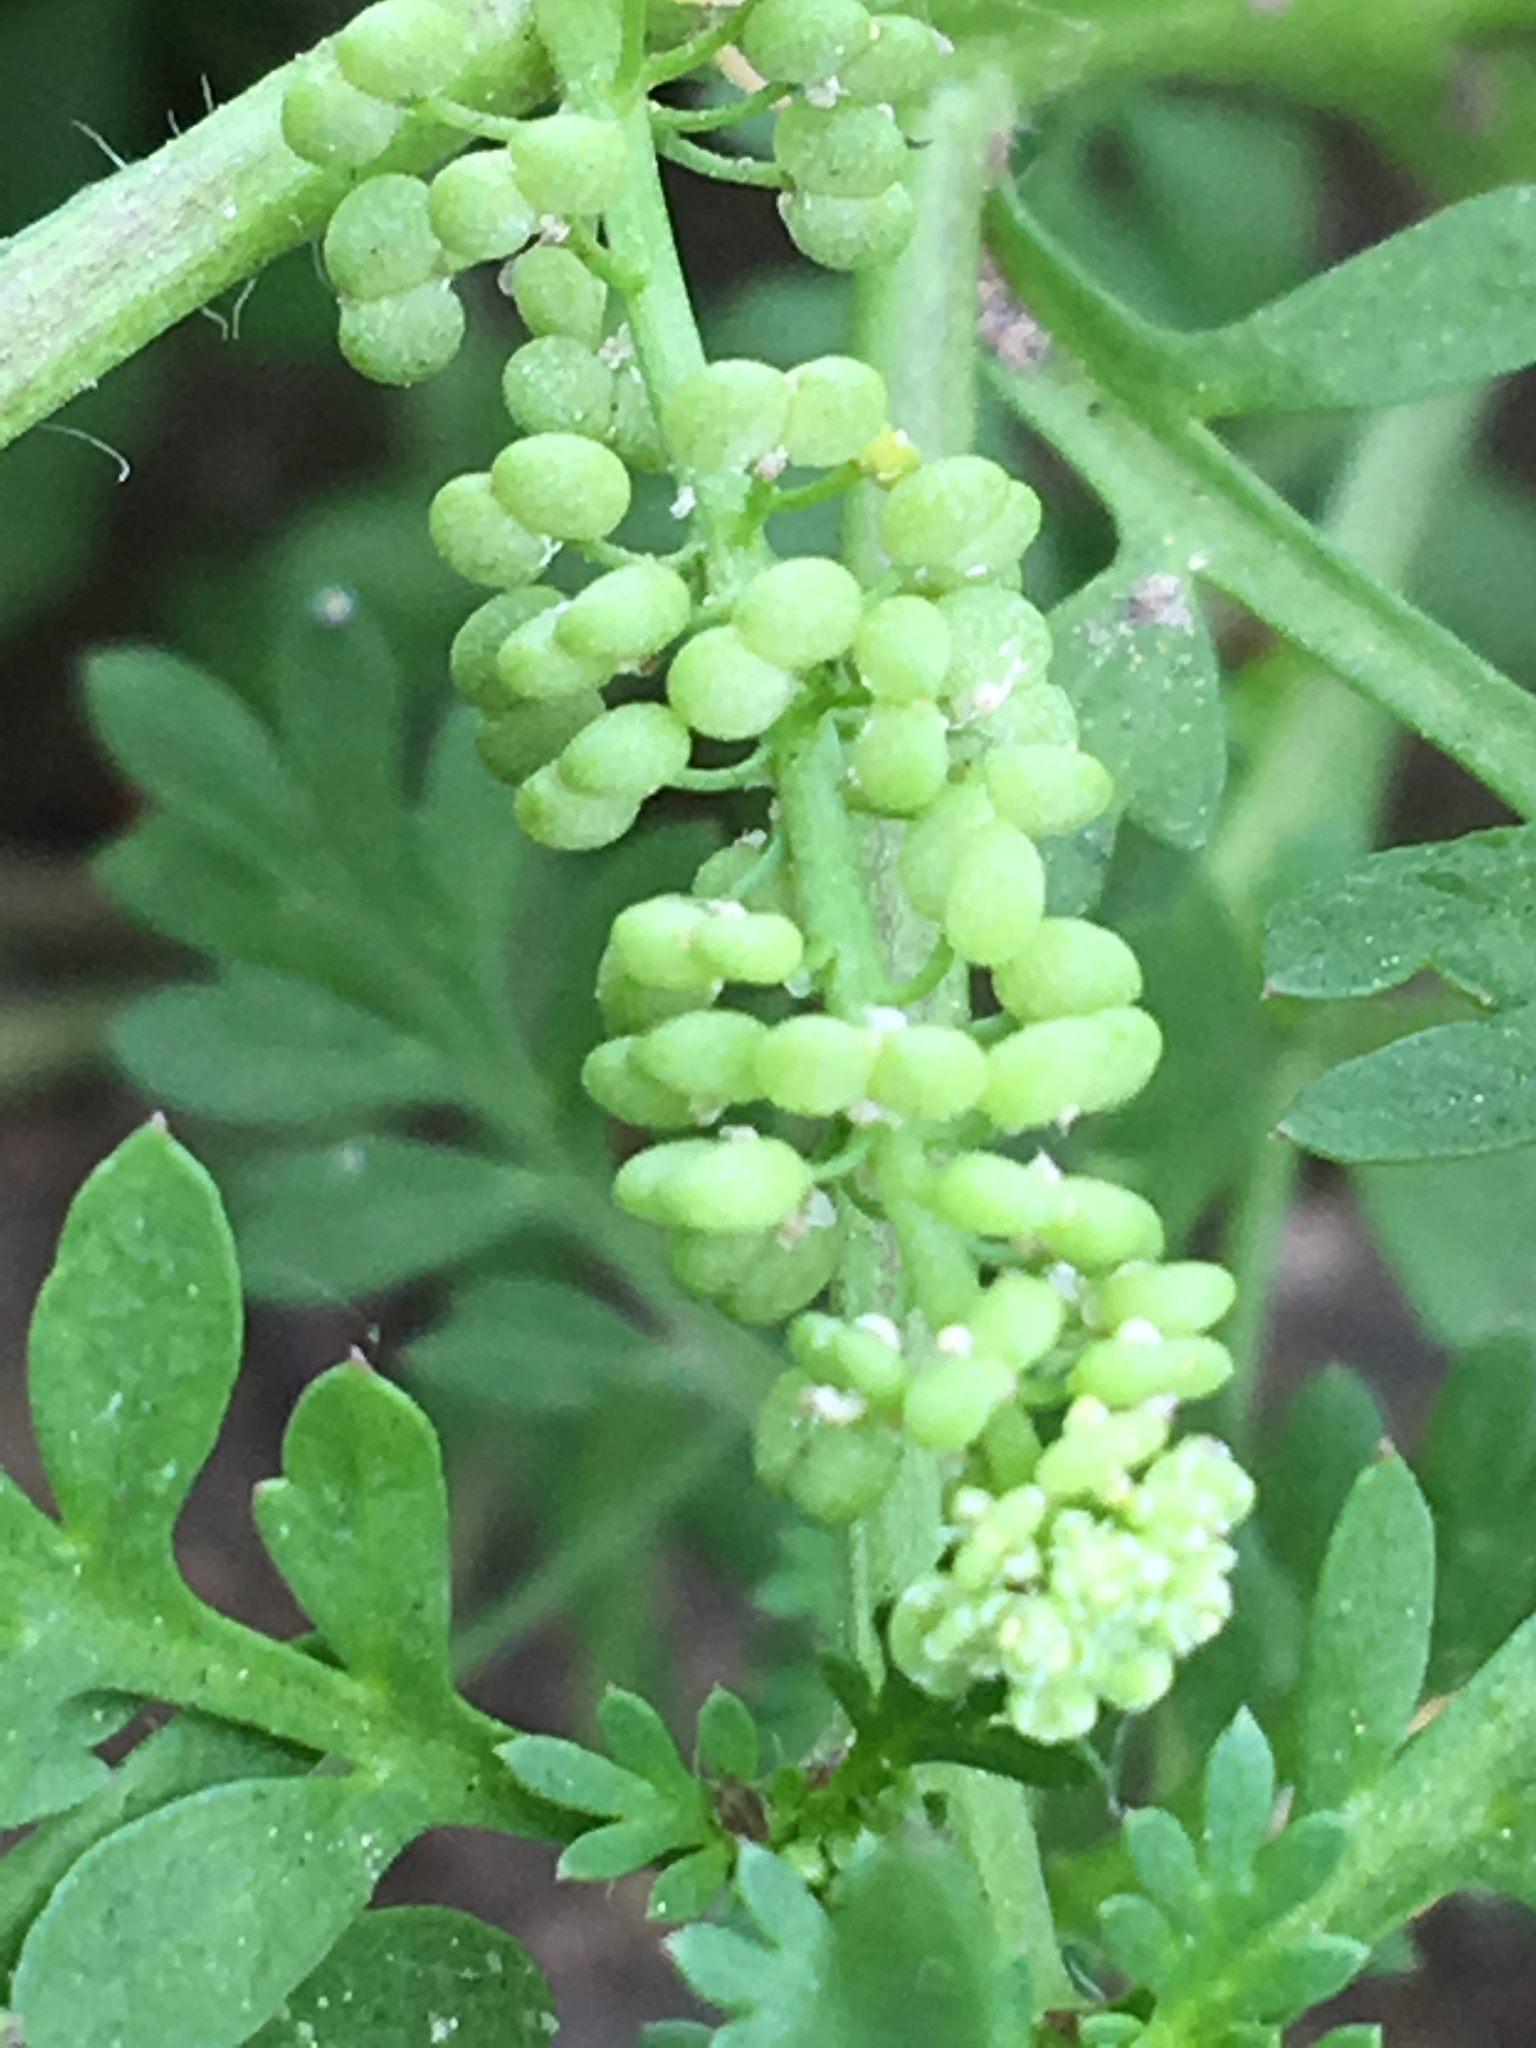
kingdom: Plantae
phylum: Tracheophyta
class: Magnoliopsida
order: Brassicales
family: Brassicaceae
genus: Lepidium
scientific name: Lepidium didymum
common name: Lesser swinecress
